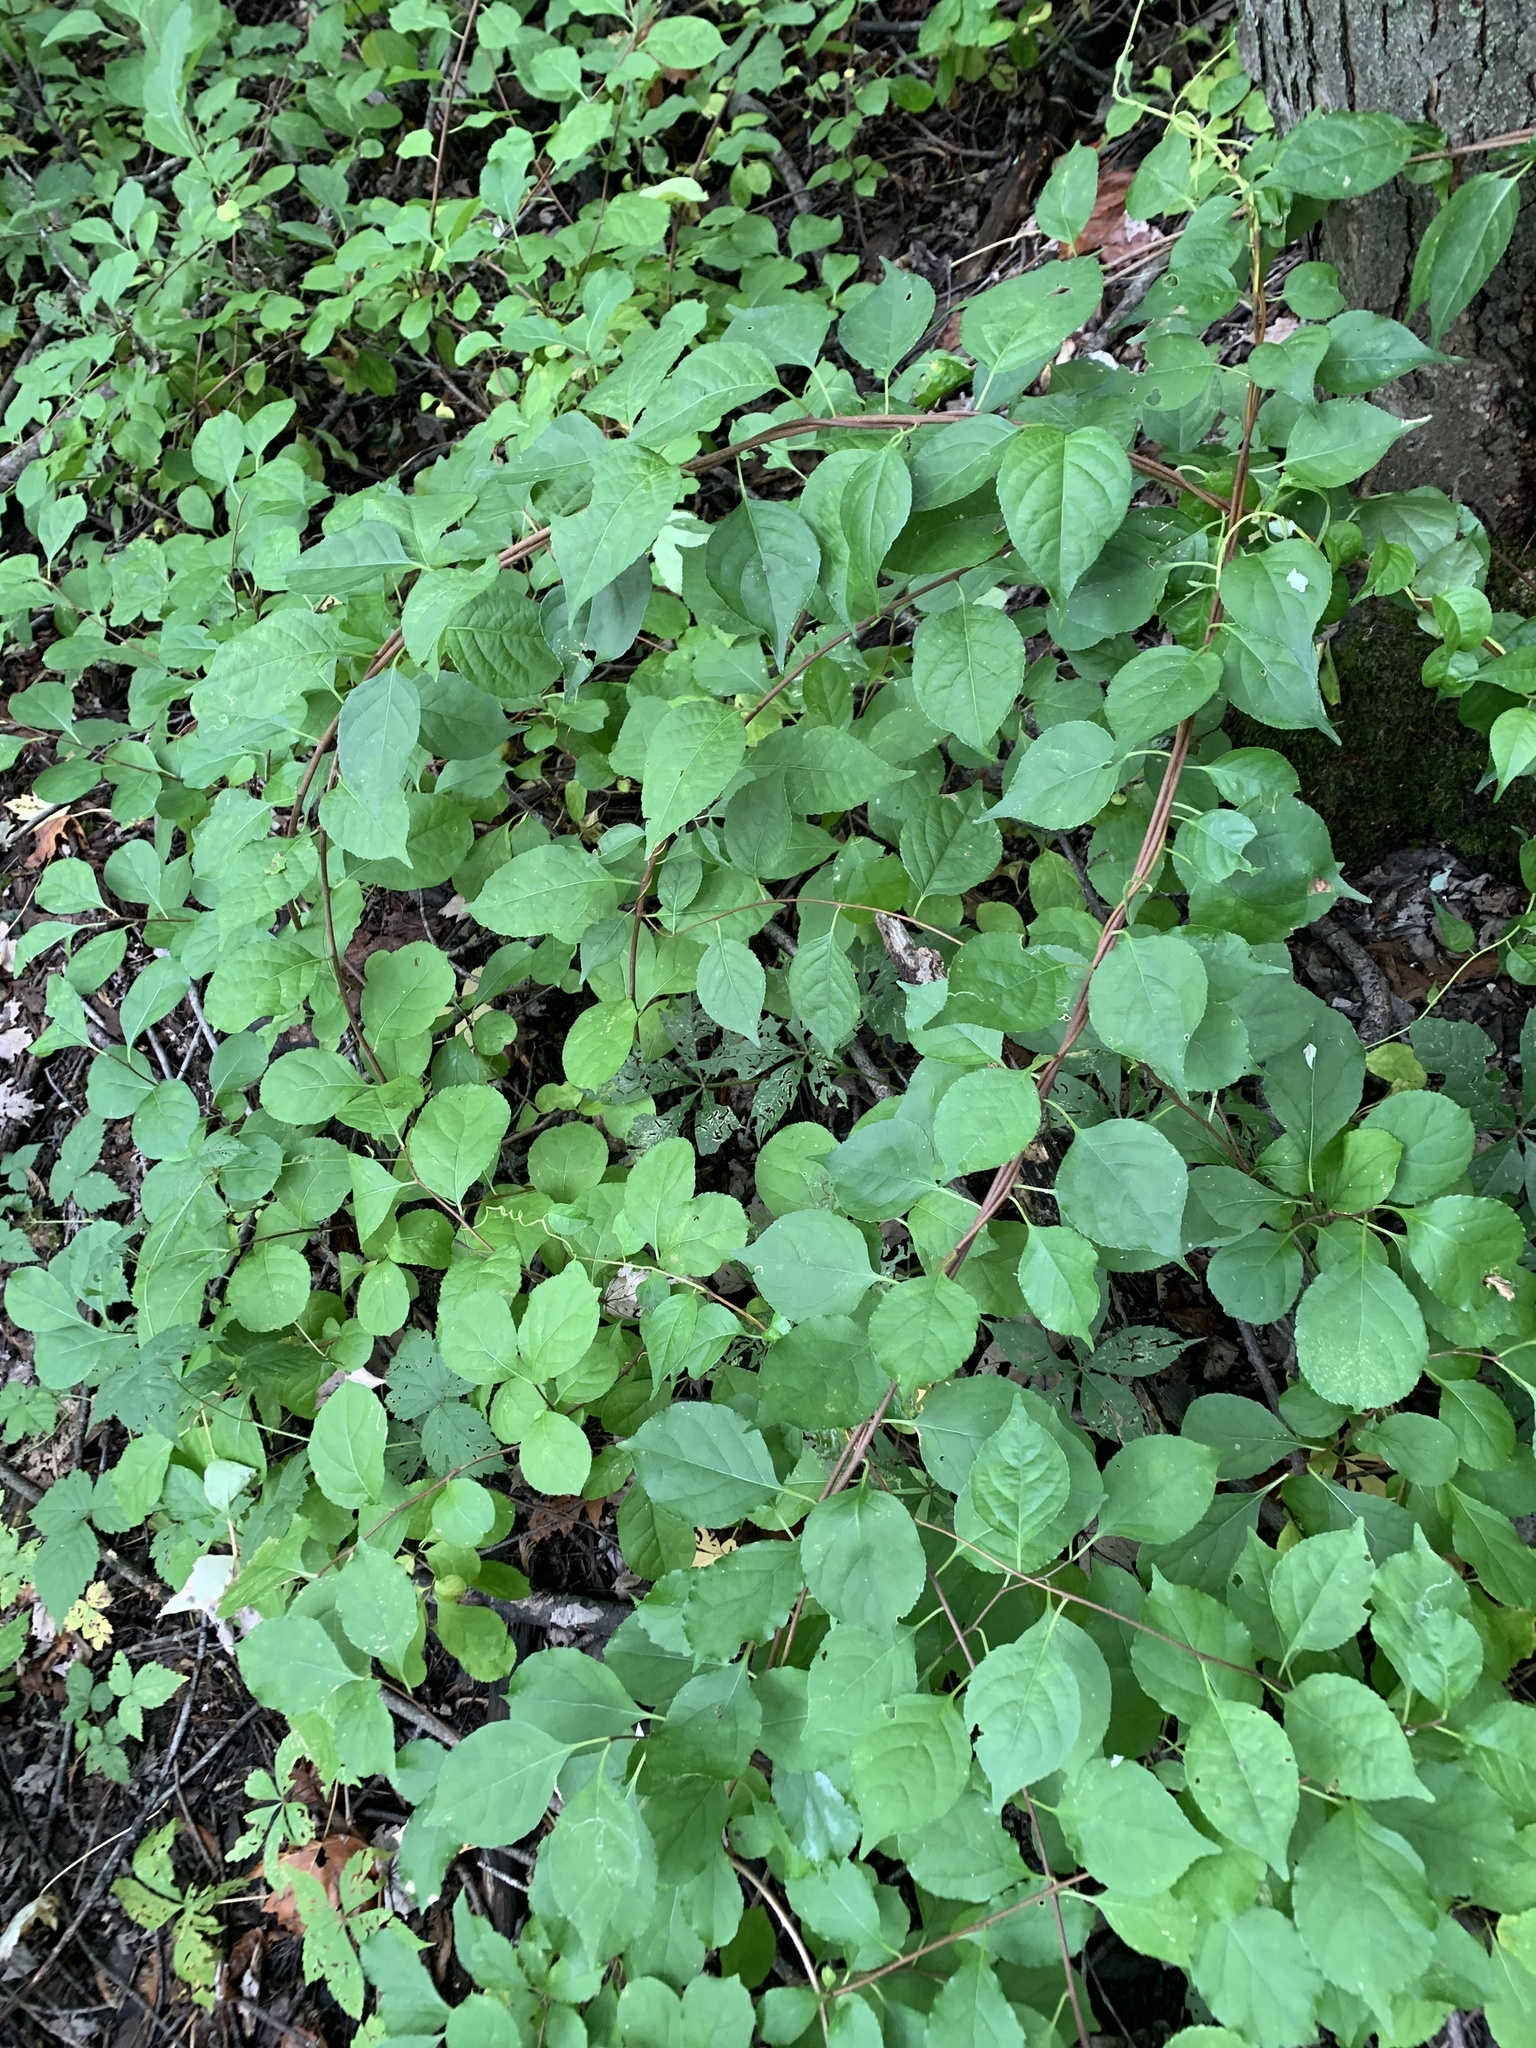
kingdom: Plantae
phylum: Tracheophyta
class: Magnoliopsida
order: Celastrales
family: Celastraceae
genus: Celastrus
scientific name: Celastrus orbiculatus
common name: Oriental bittersweet
